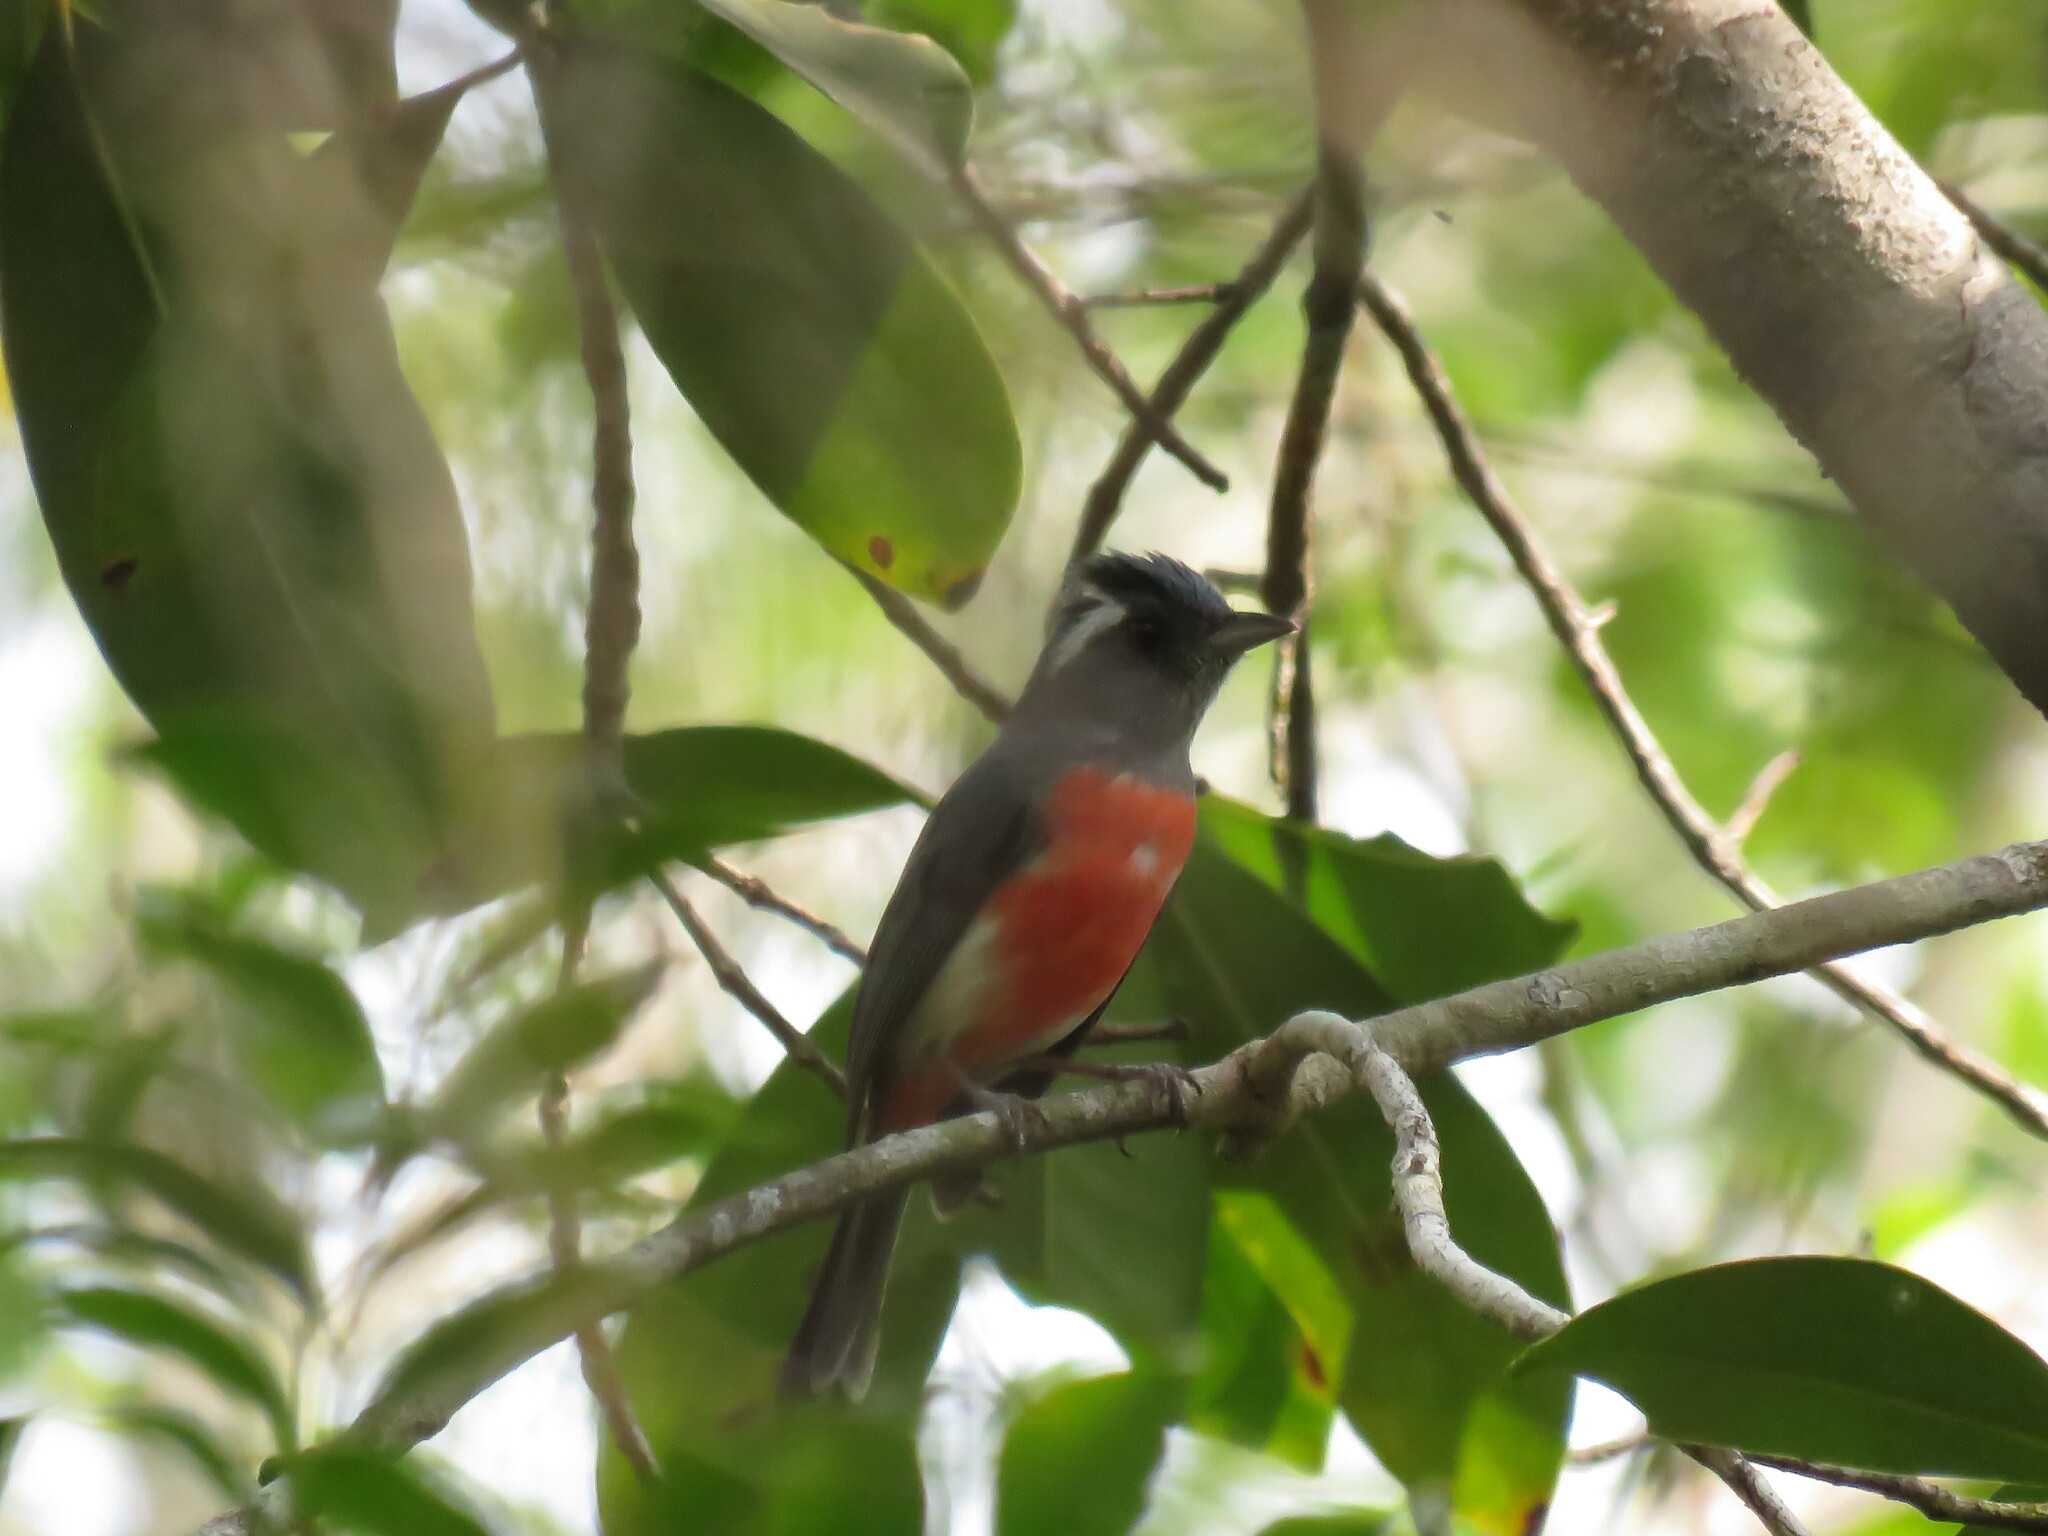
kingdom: Animalia
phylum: Chordata
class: Aves
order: Passeriformes
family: Cardinalidae
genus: Granatellus
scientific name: Granatellus sallaei
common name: Gray-throated chat
